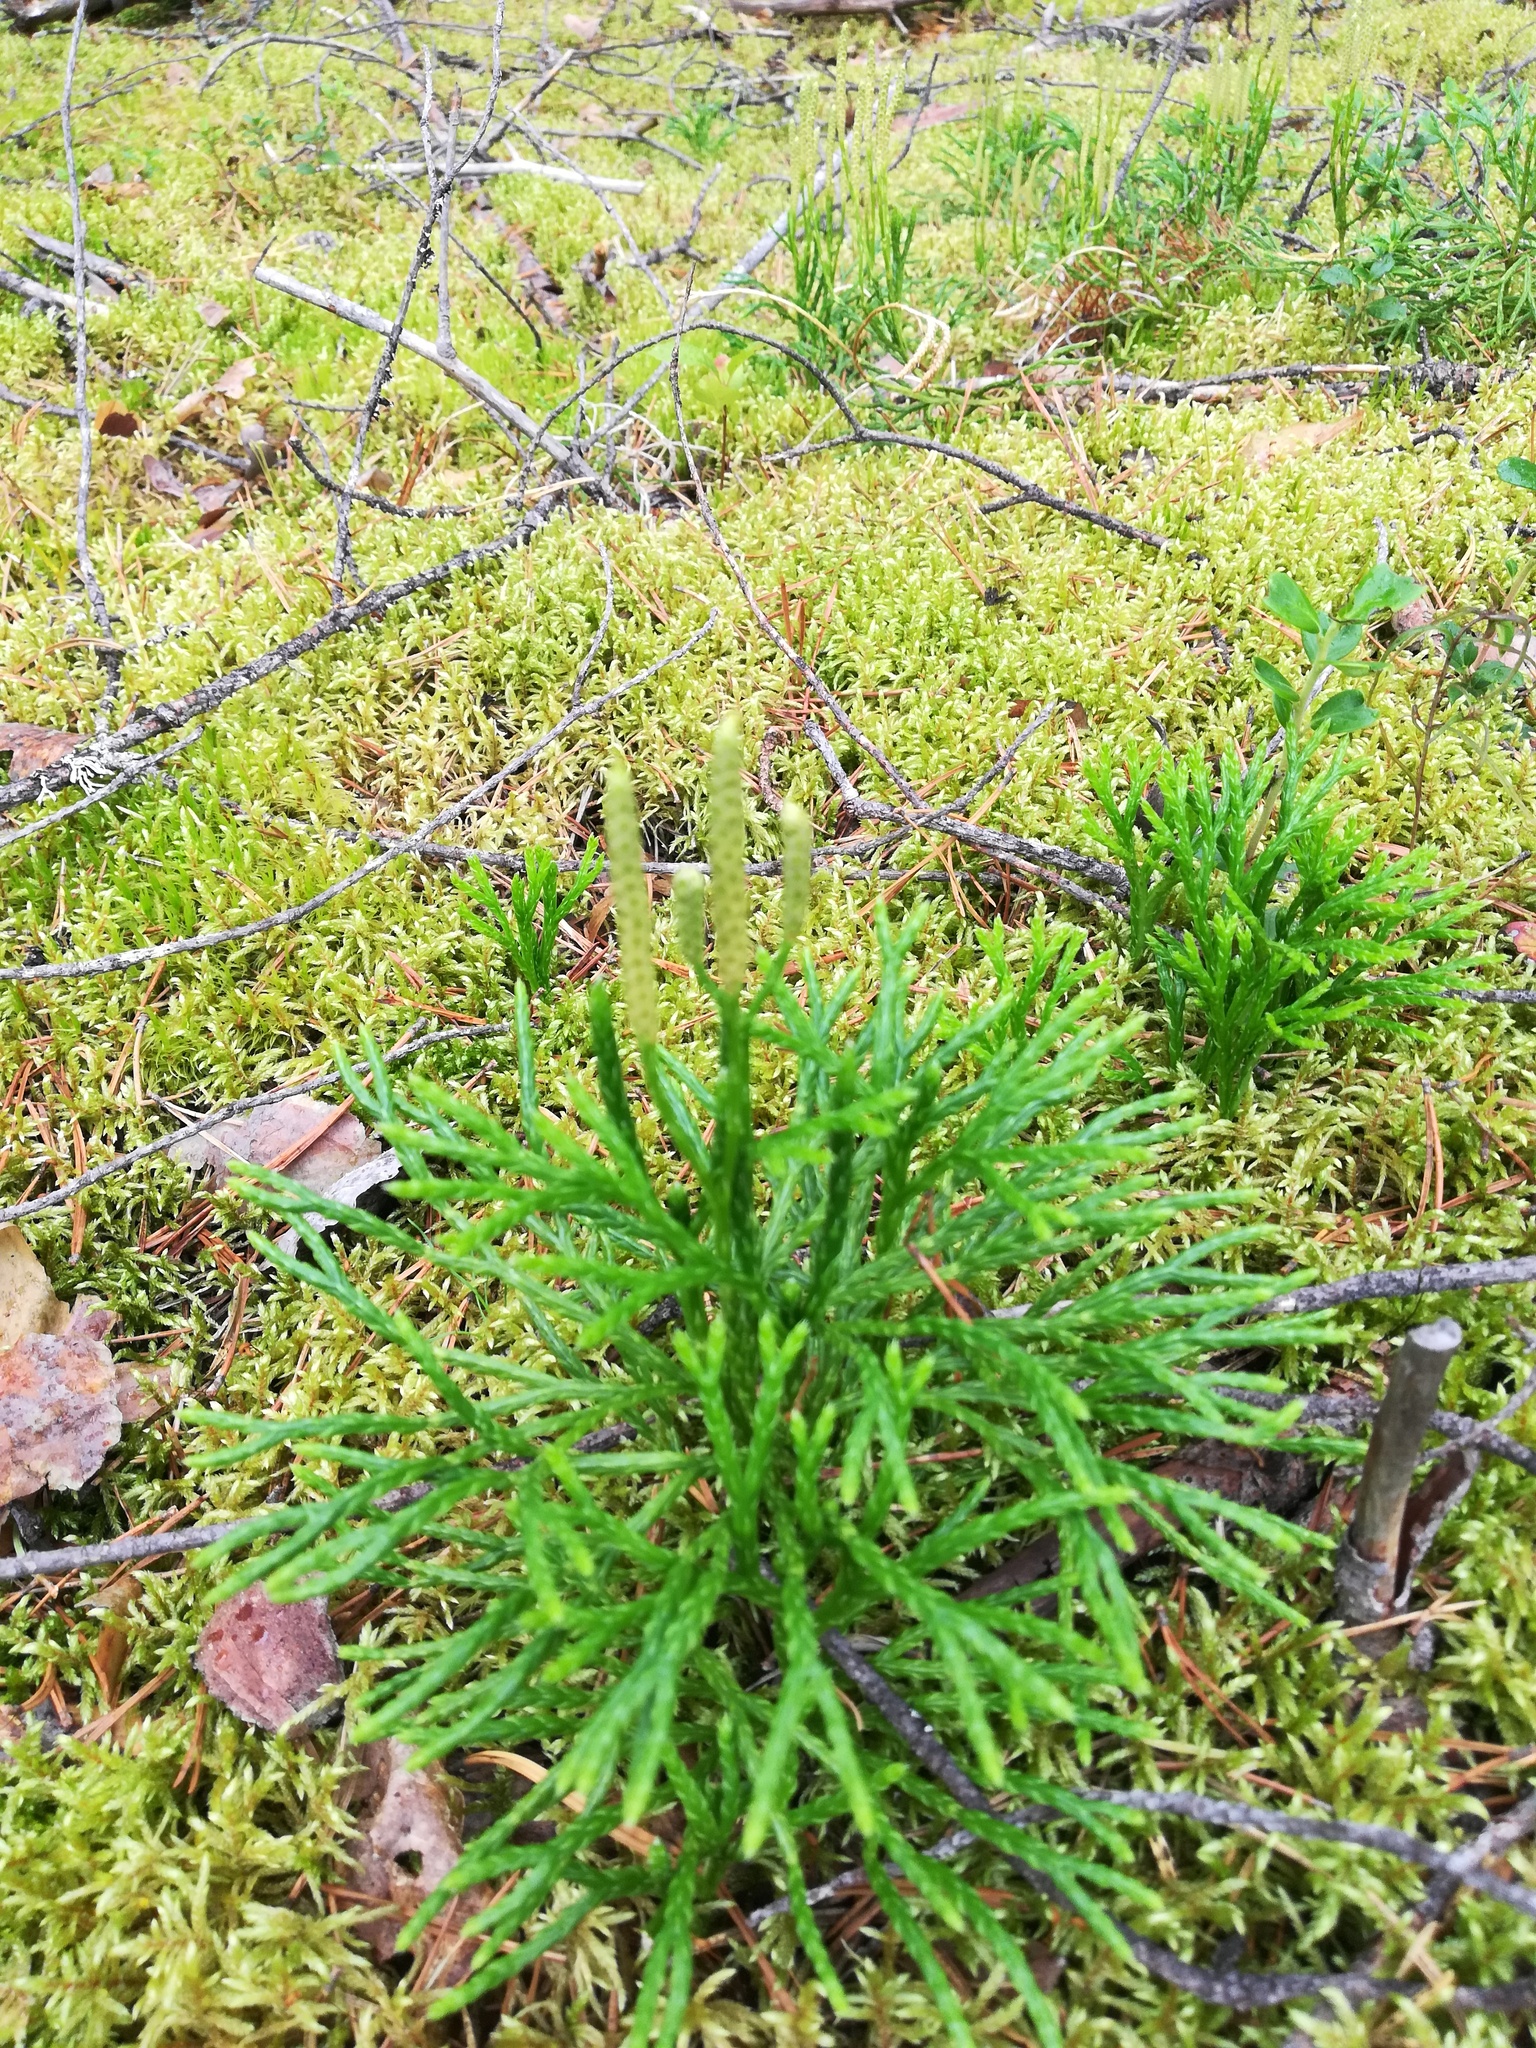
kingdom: Plantae
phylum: Tracheophyta
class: Lycopodiopsida
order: Lycopodiales
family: Lycopodiaceae
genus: Diphasiastrum
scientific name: Diphasiastrum complanatum
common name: Northern running-pine
